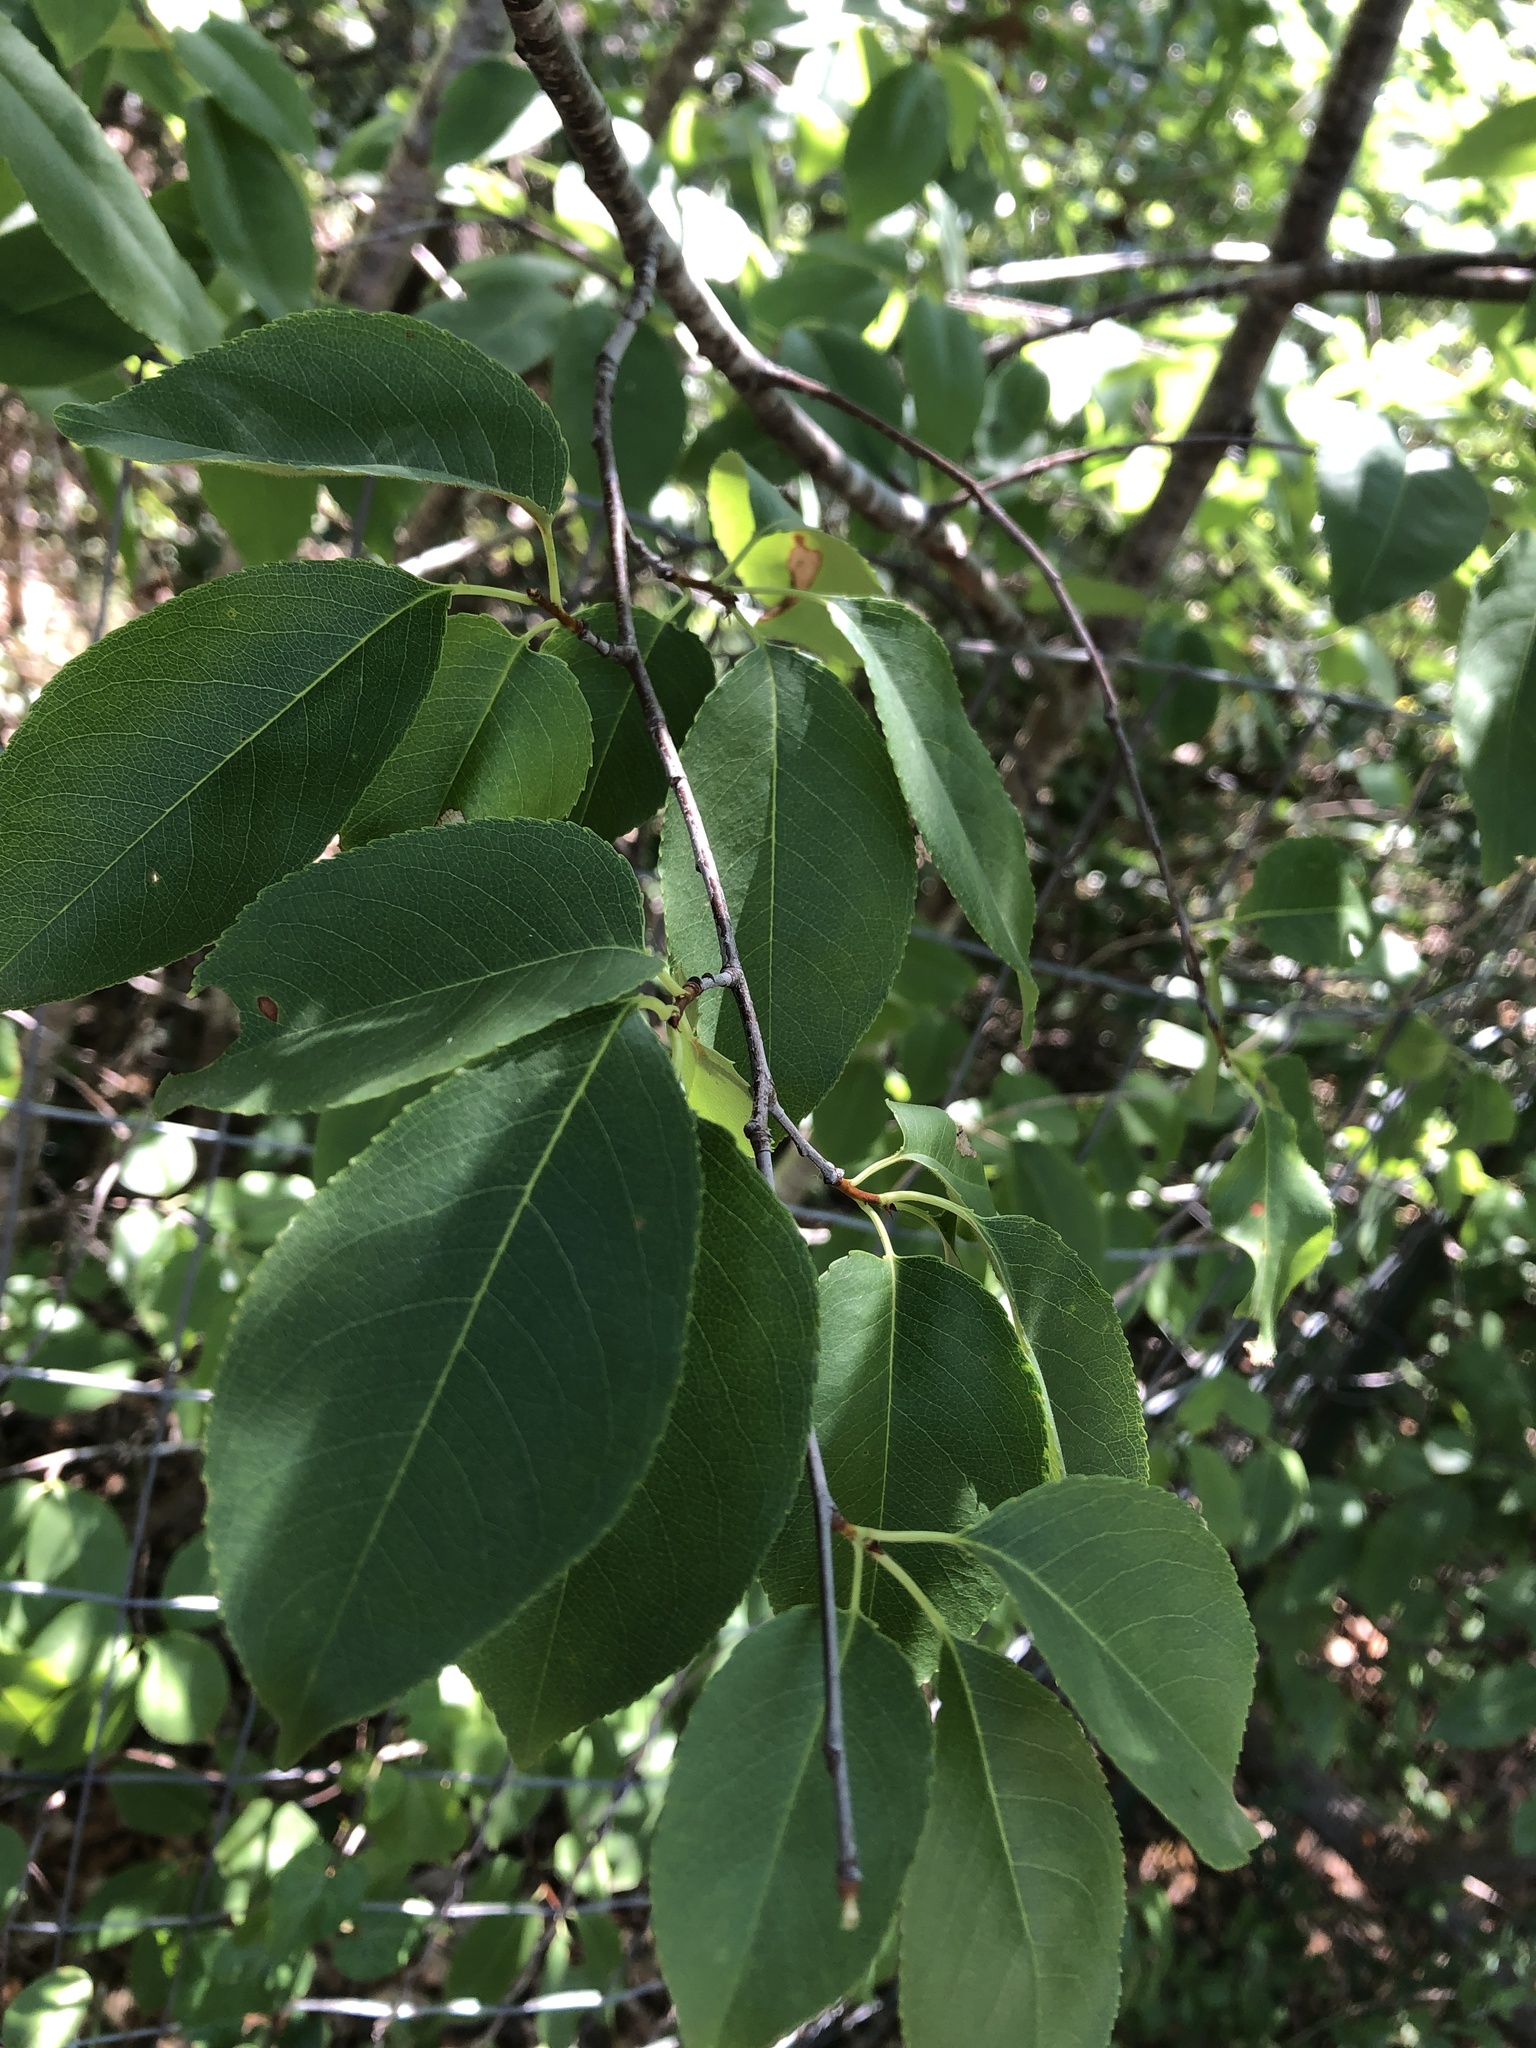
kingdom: Plantae
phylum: Tracheophyta
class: Magnoliopsida
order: Rosales
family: Rosaceae
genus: Prunus
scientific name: Prunus serotina
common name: Black cherry
